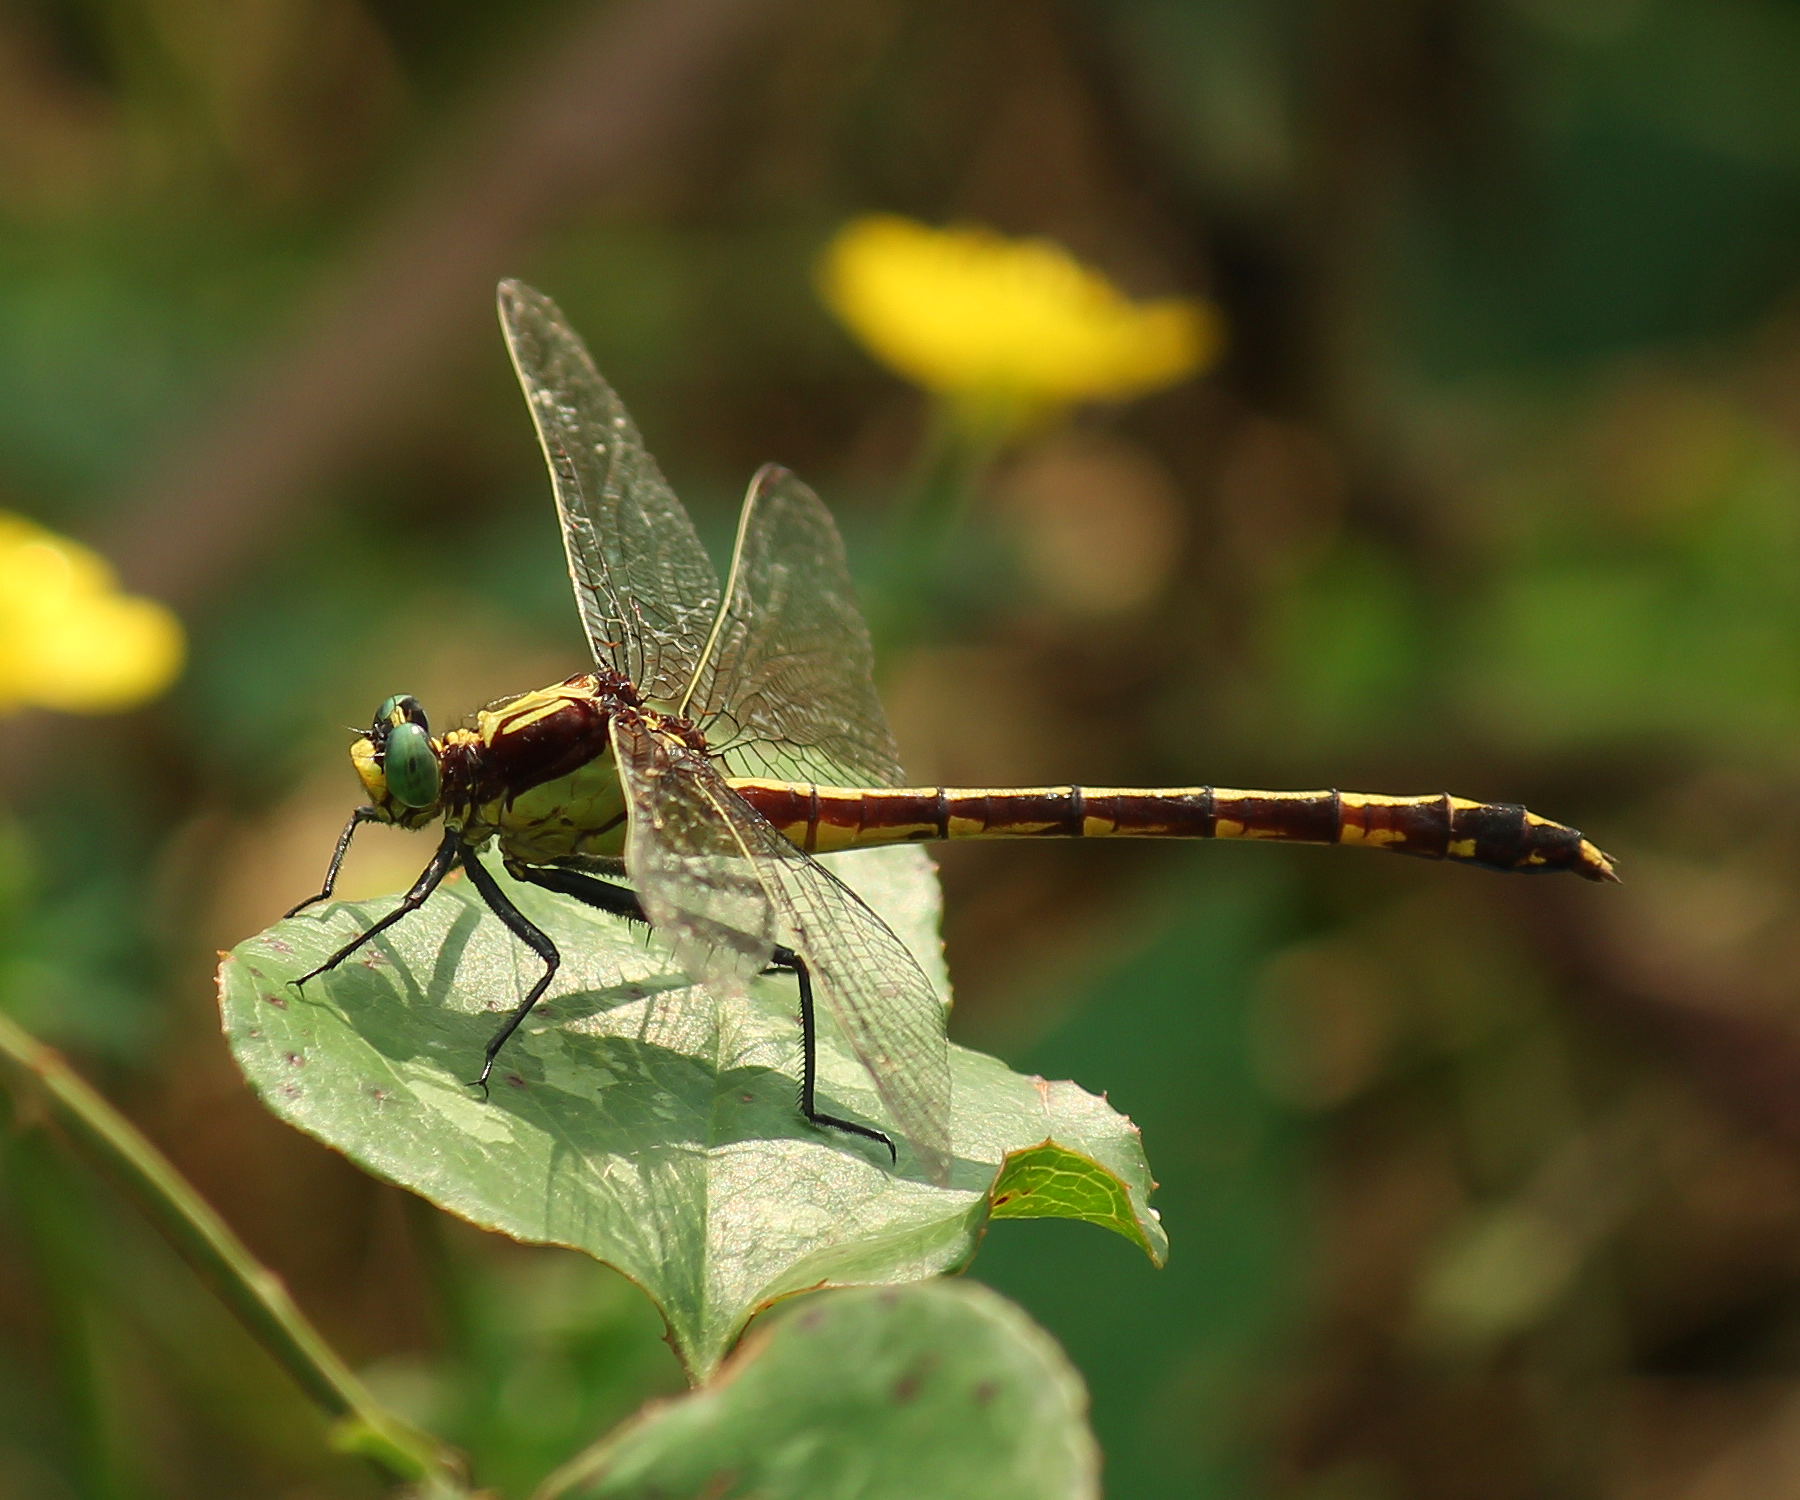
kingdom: Animalia
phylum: Arthropoda
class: Insecta
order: Odonata
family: Gomphidae
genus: Dromogomphus
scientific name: Dromogomphus spinosus
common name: Black-shouldered spinyleg
